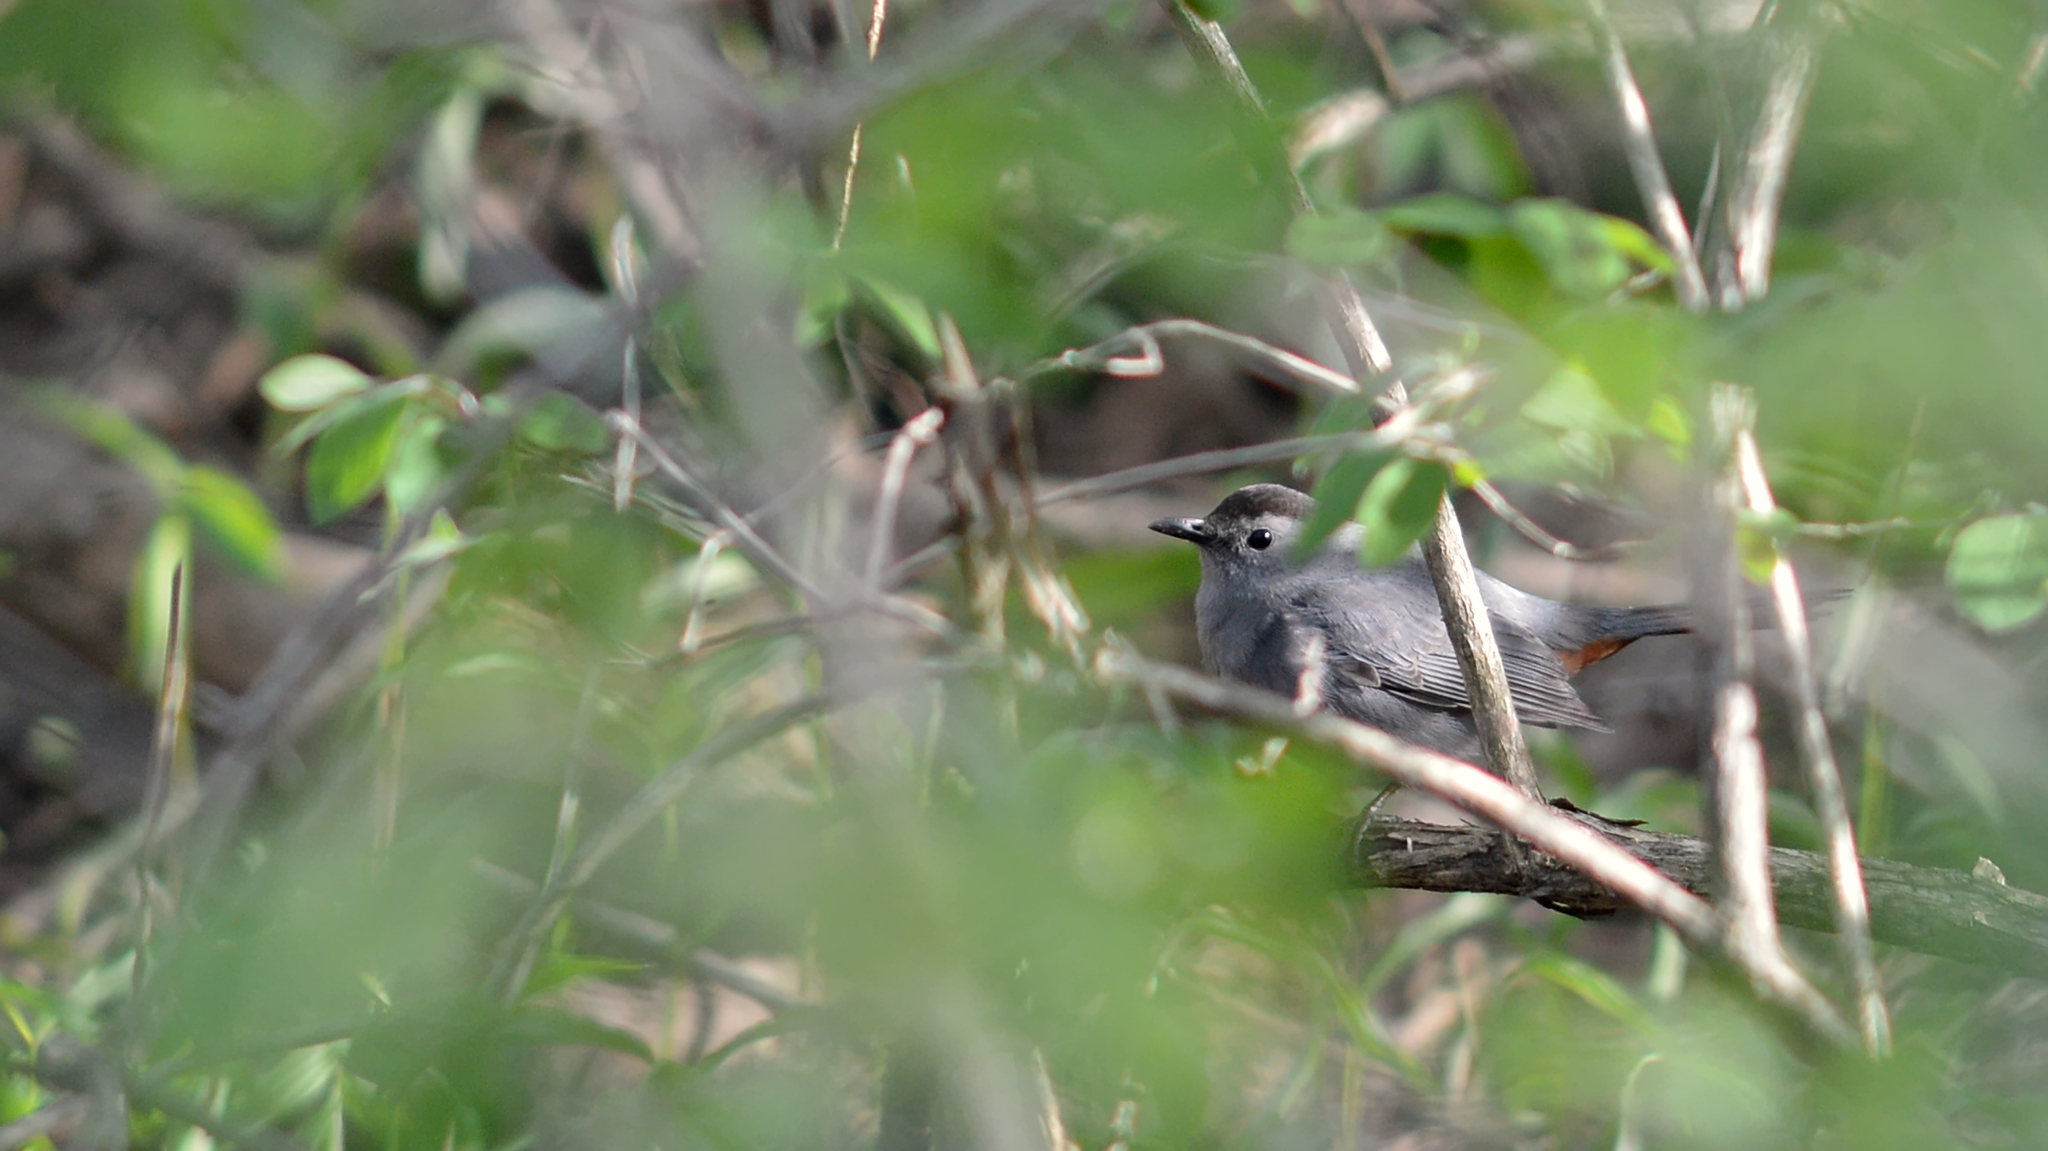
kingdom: Animalia
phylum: Chordata
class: Aves
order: Passeriformes
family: Mimidae
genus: Dumetella
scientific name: Dumetella carolinensis
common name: Gray catbird
